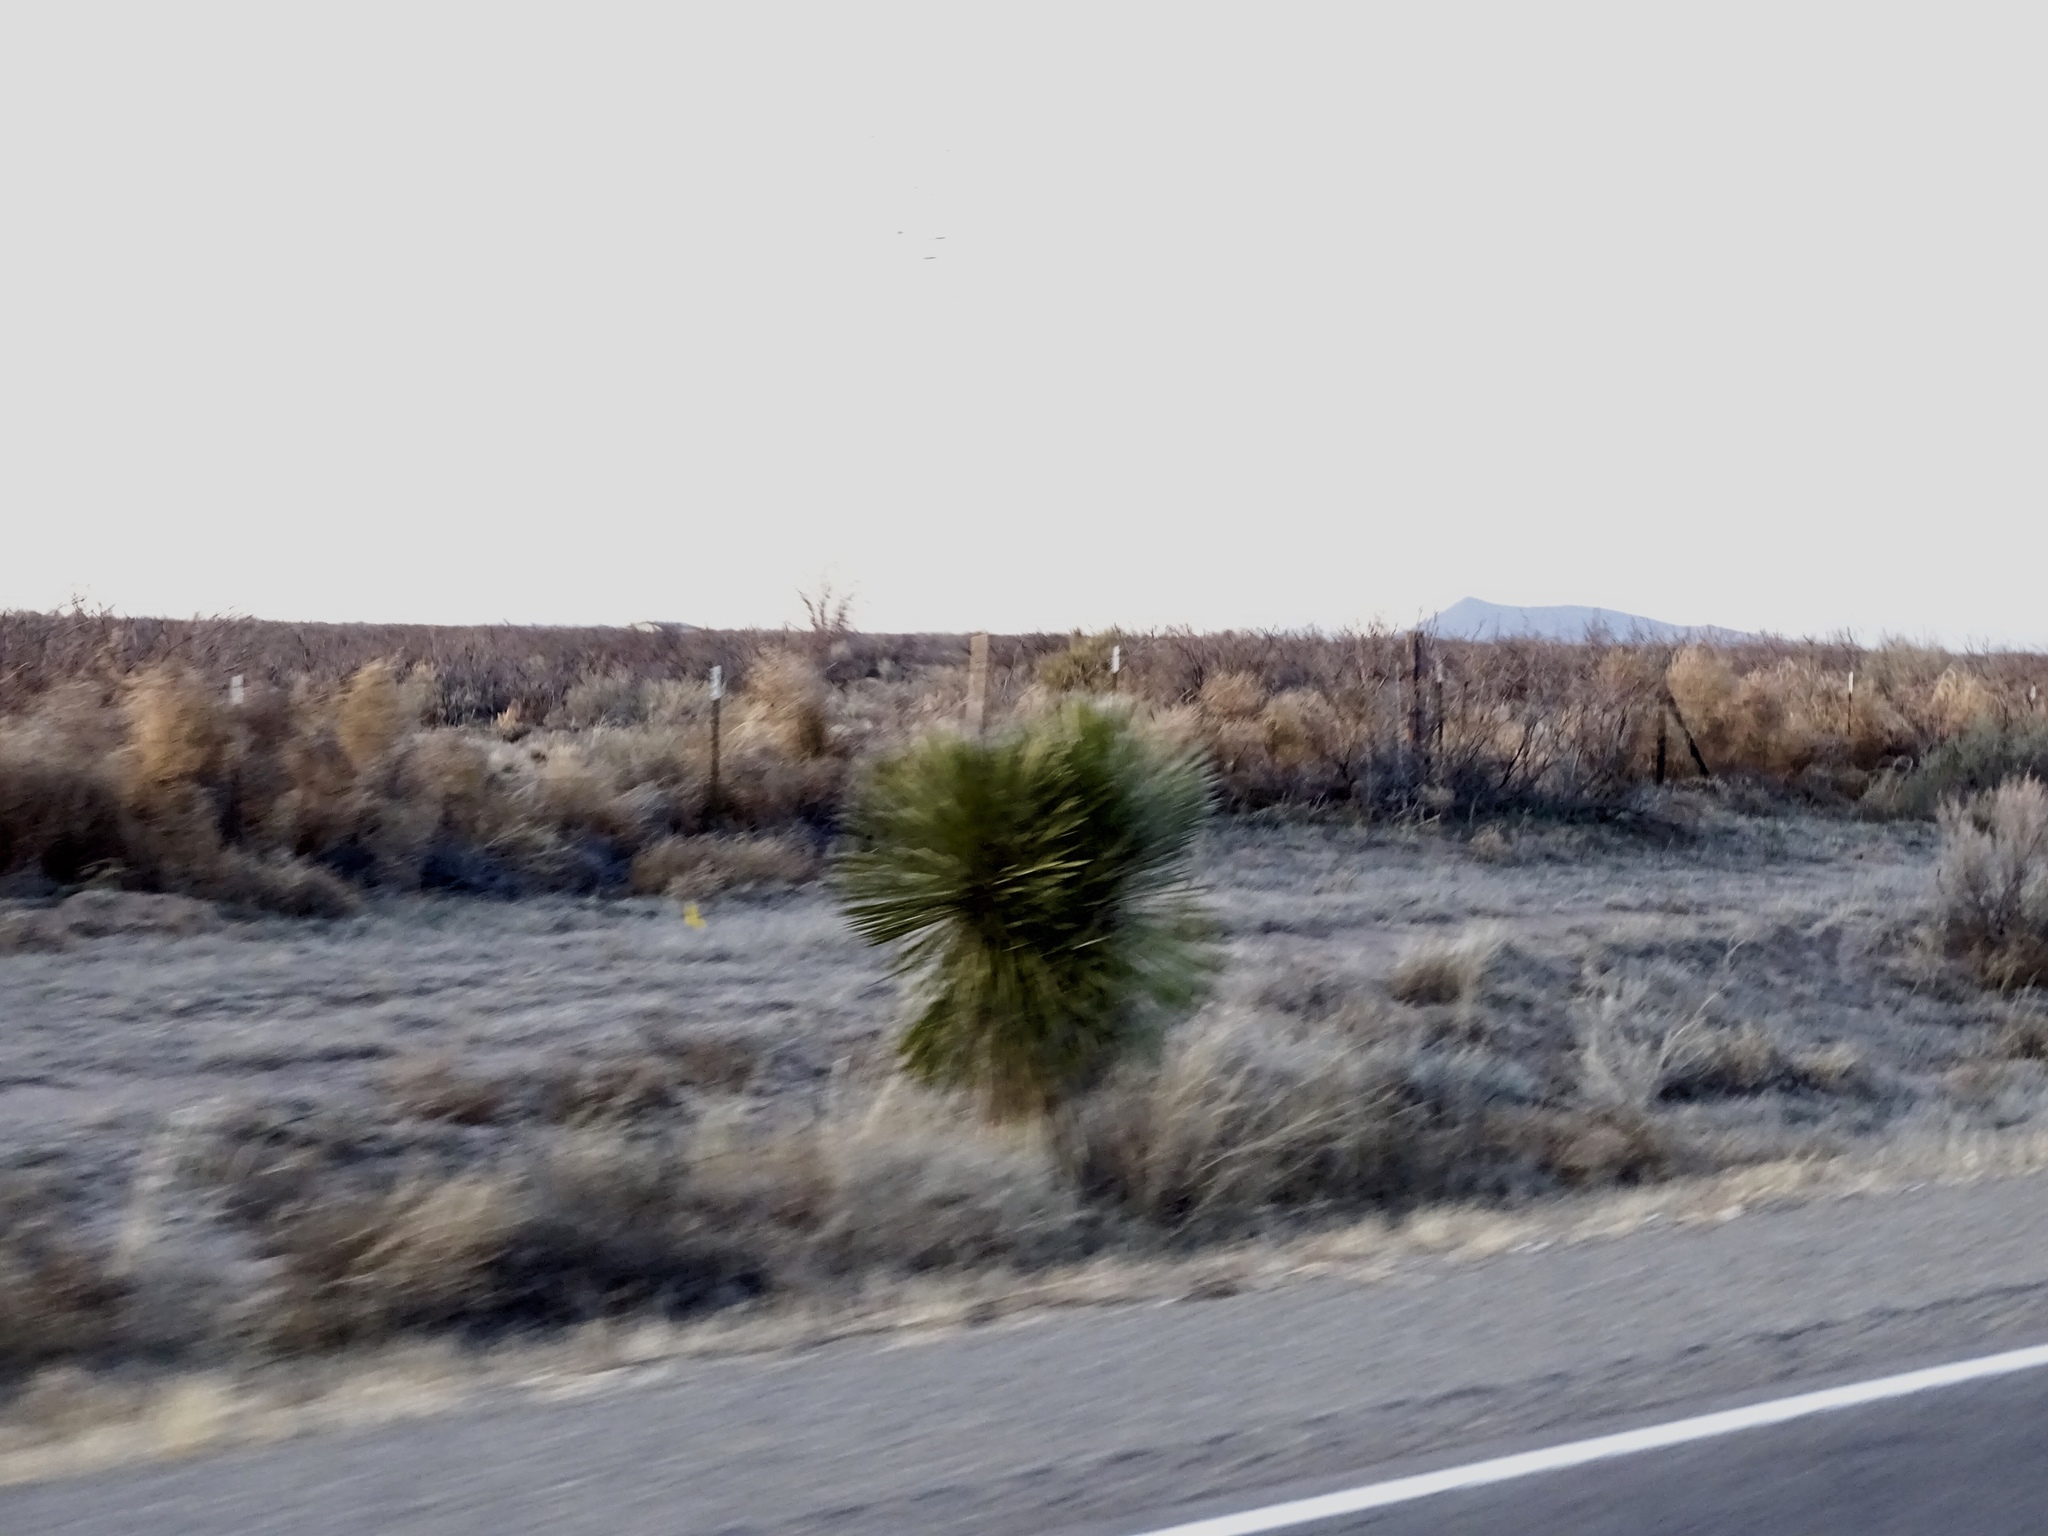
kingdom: Plantae
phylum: Tracheophyta
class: Liliopsida
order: Asparagales
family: Asparagaceae
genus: Yucca
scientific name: Yucca elata
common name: Palmella
